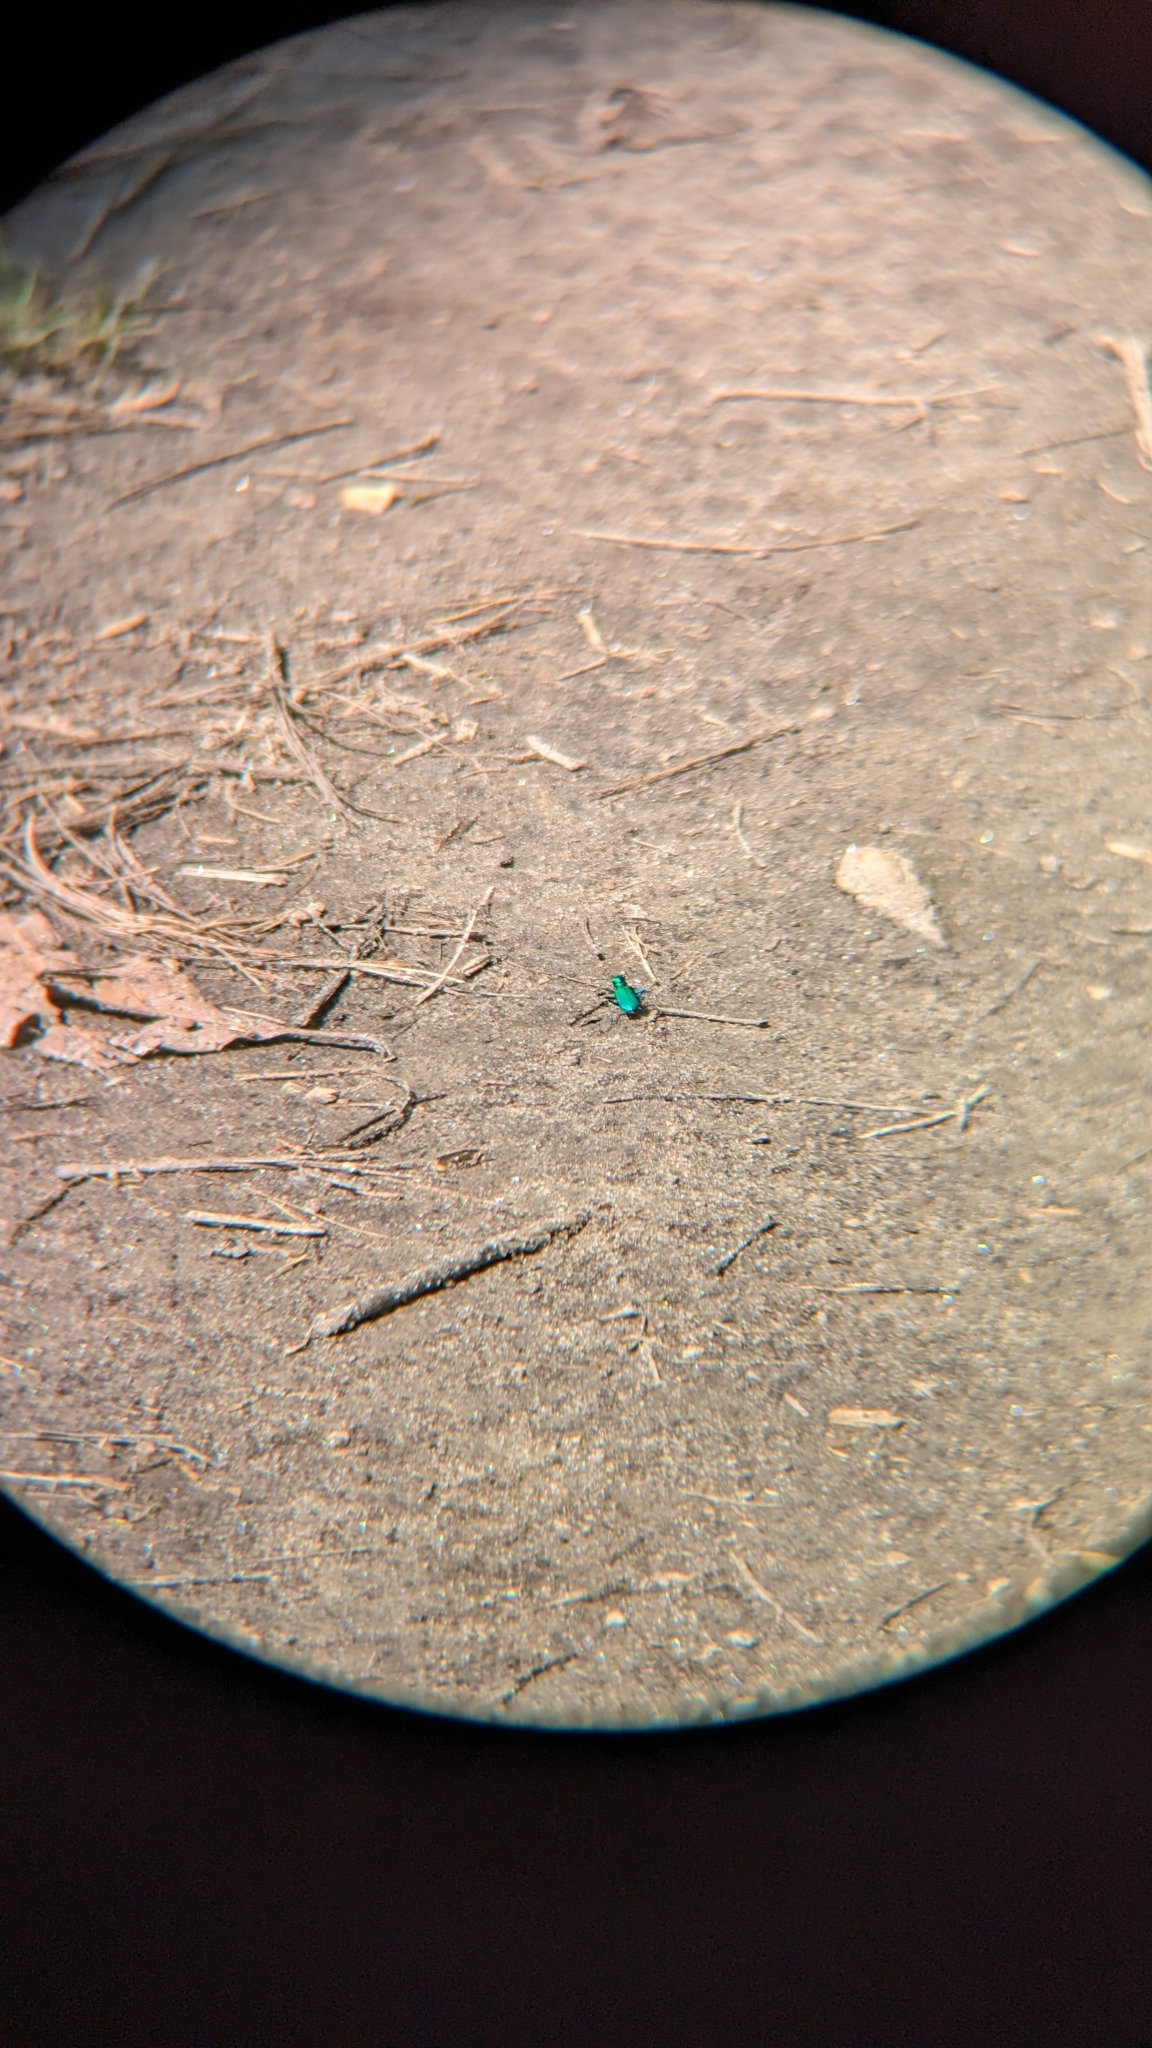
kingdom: Animalia
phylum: Arthropoda
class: Insecta
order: Coleoptera
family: Carabidae
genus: Cicindela
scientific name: Cicindela sexguttata
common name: Six-spotted tiger beetle
